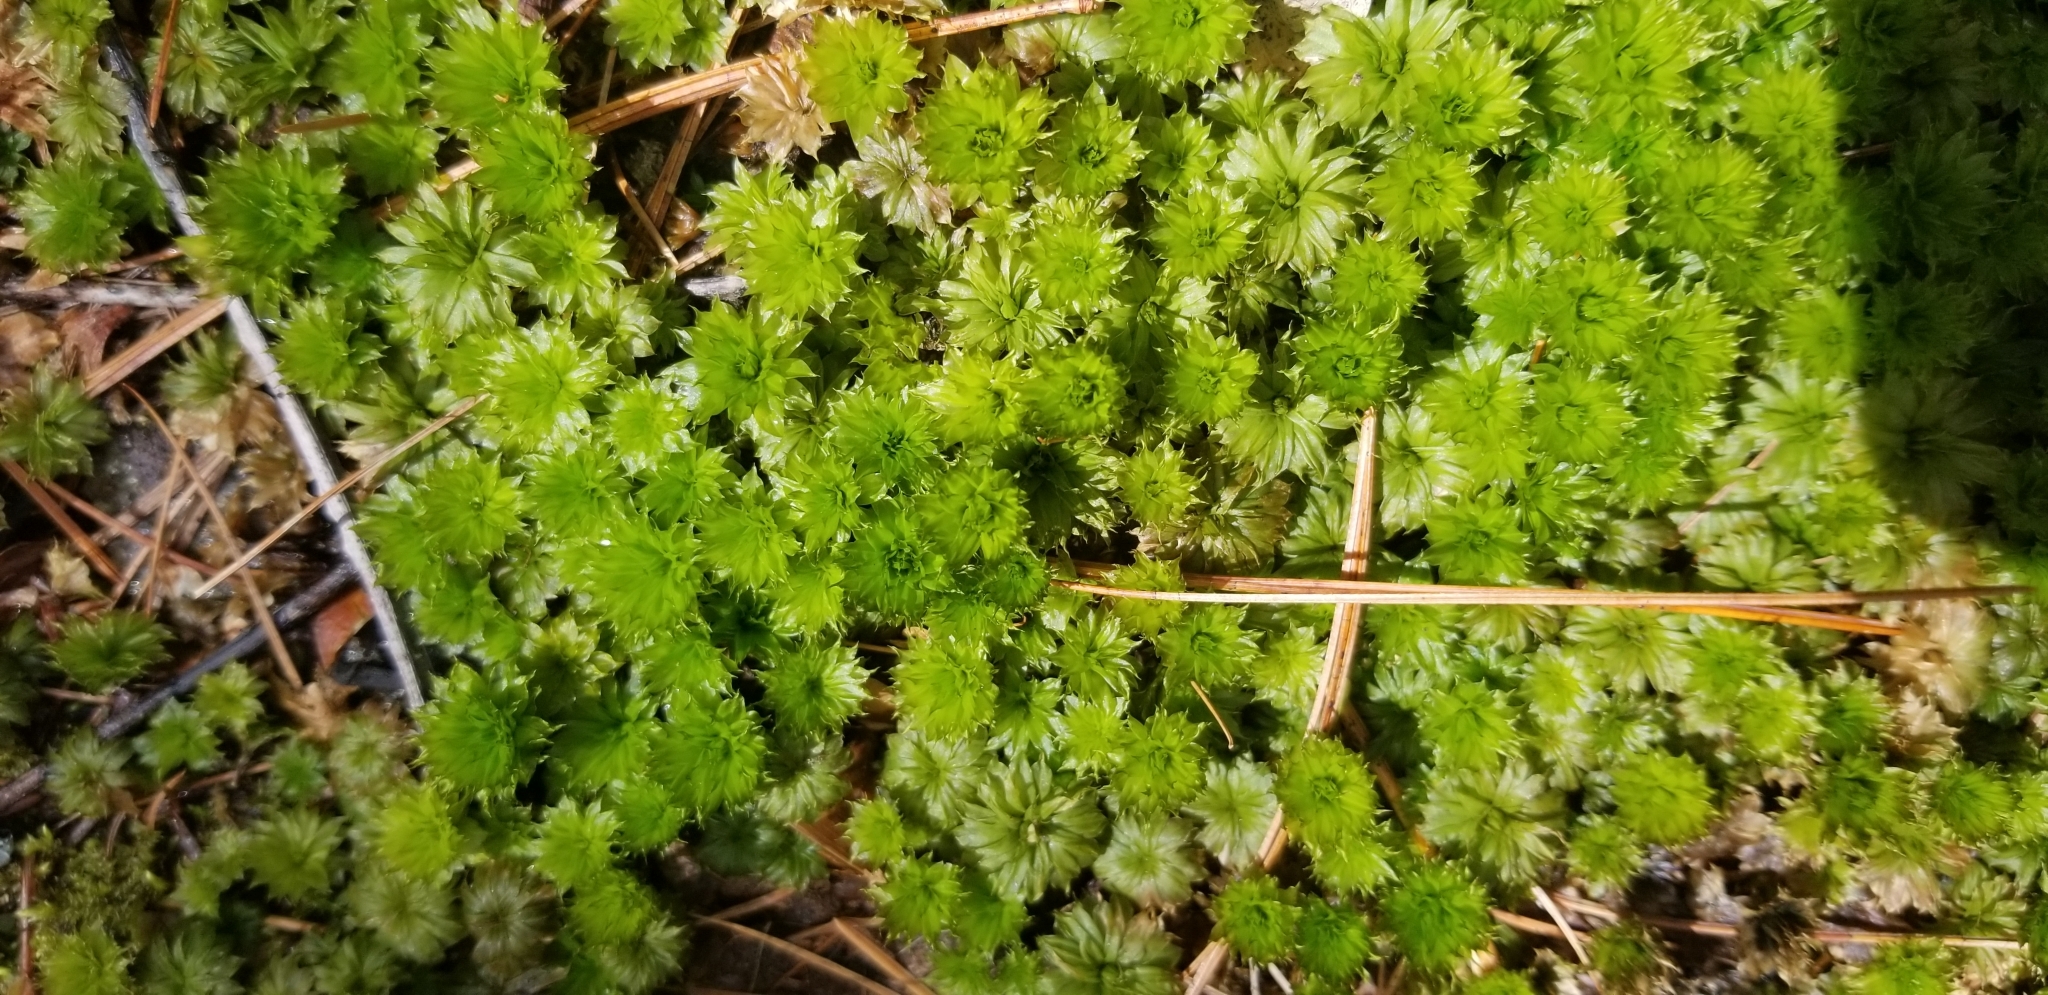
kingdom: Plantae
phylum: Bryophyta
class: Bryopsida
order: Bryales
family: Bryaceae
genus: Rhodobryum
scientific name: Rhodobryum ontariense
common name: Ontario rhodobryum moss
